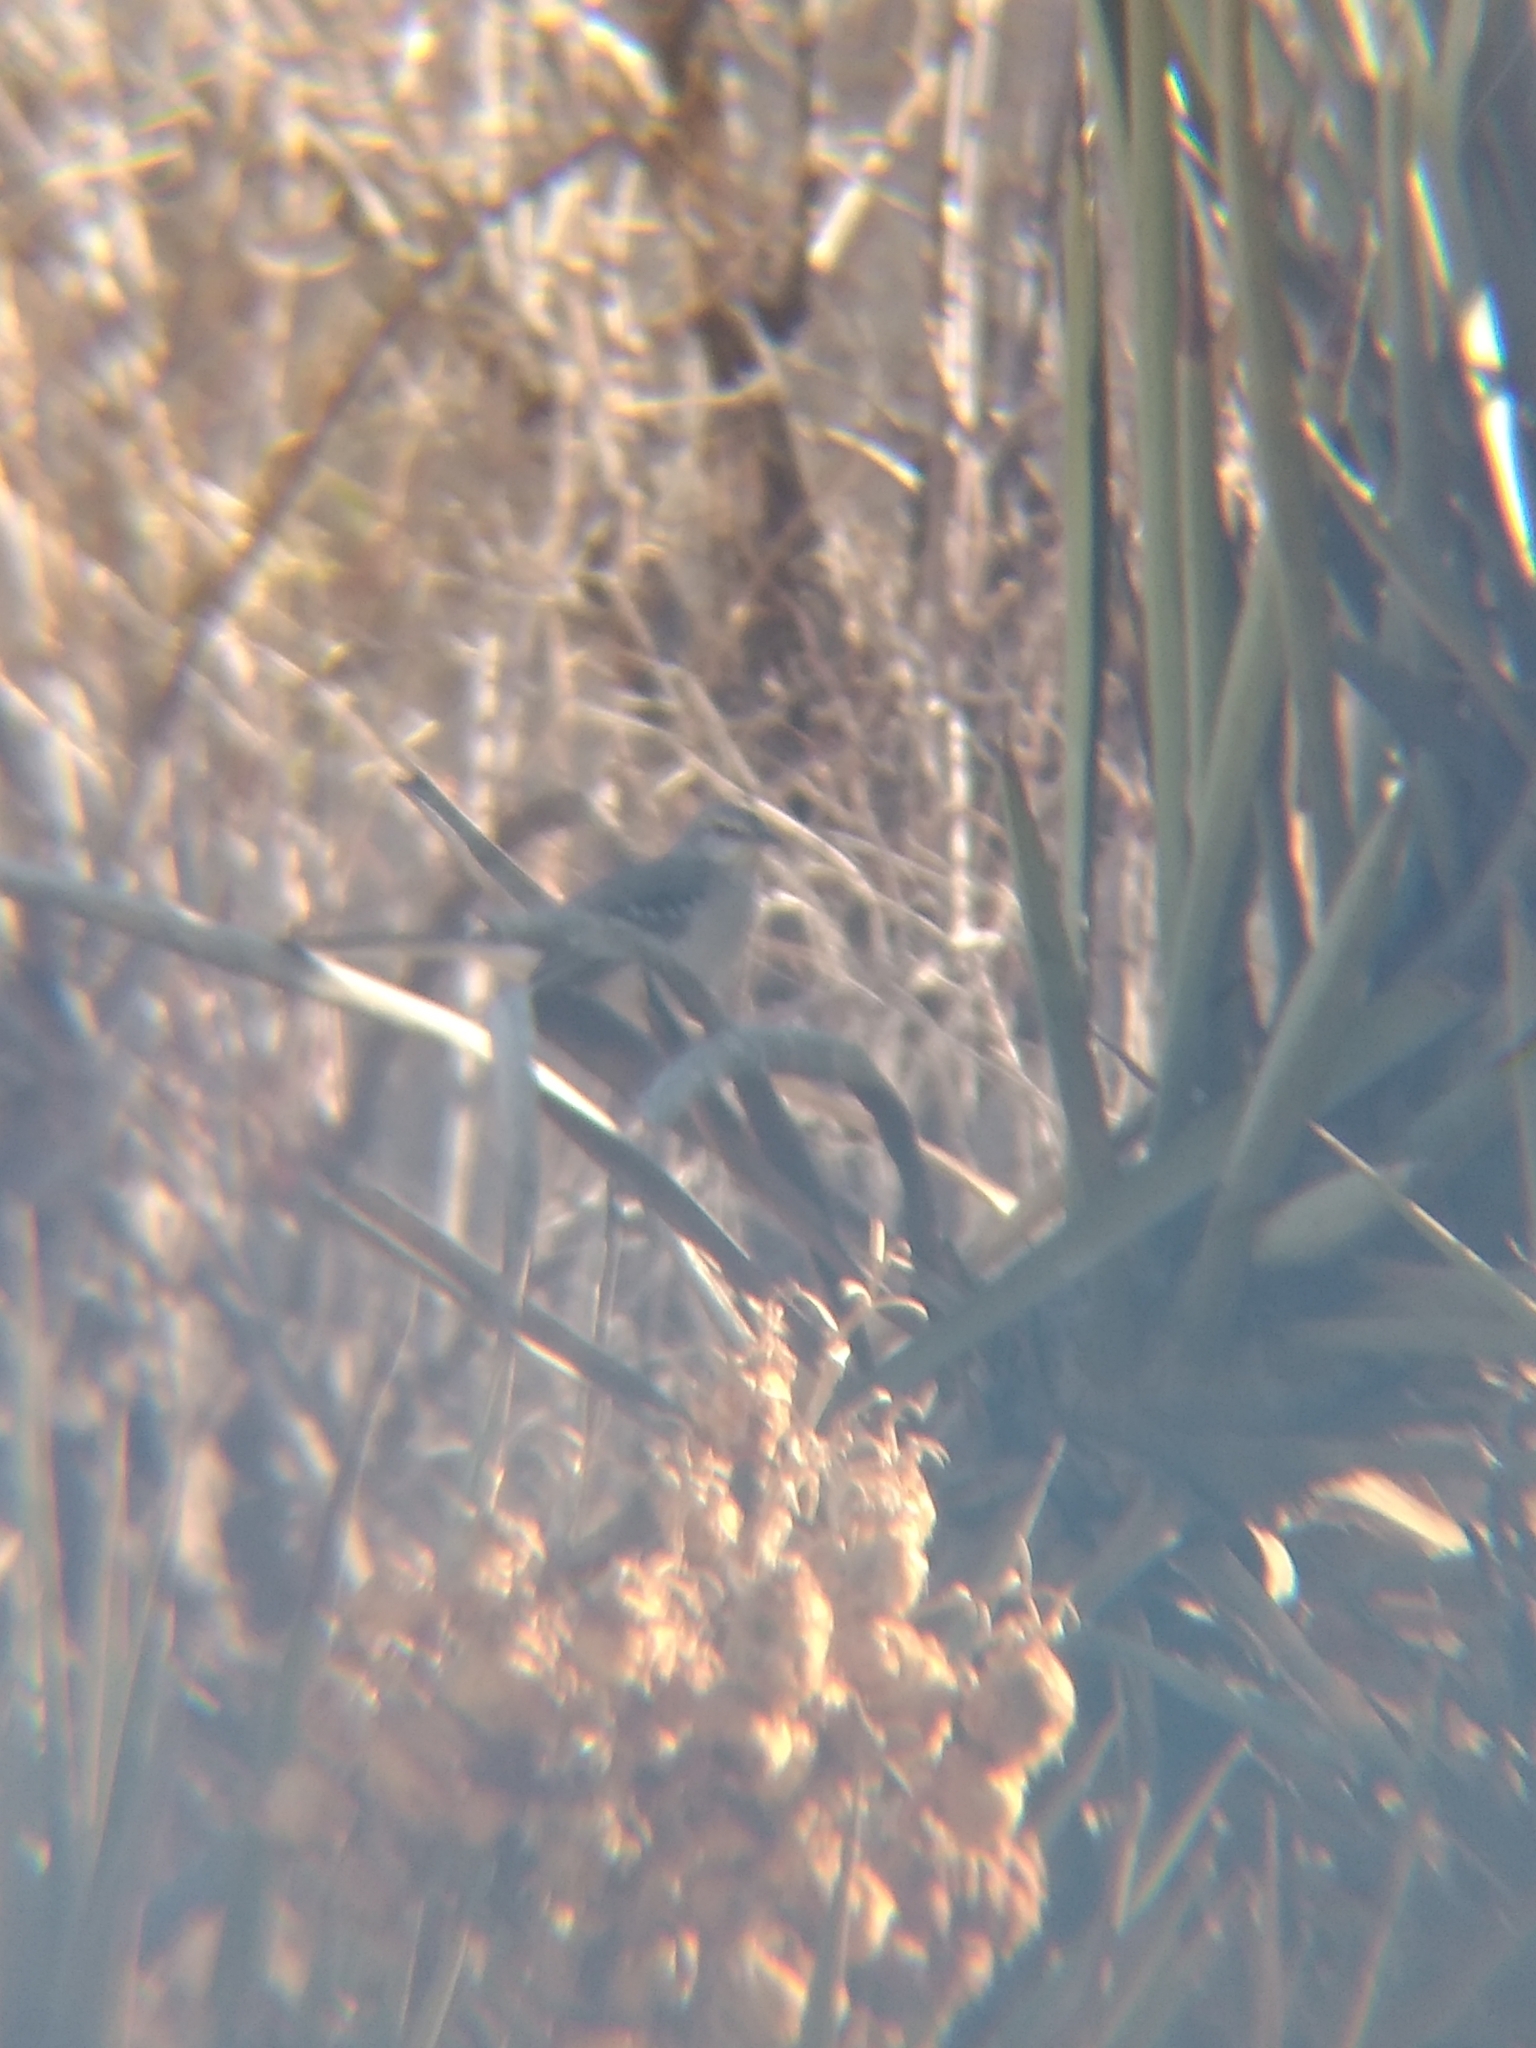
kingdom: Animalia
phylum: Chordata
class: Aves
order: Passeriformes
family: Mimidae
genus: Mimus
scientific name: Mimus polyglottos
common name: Northern mockingbird
